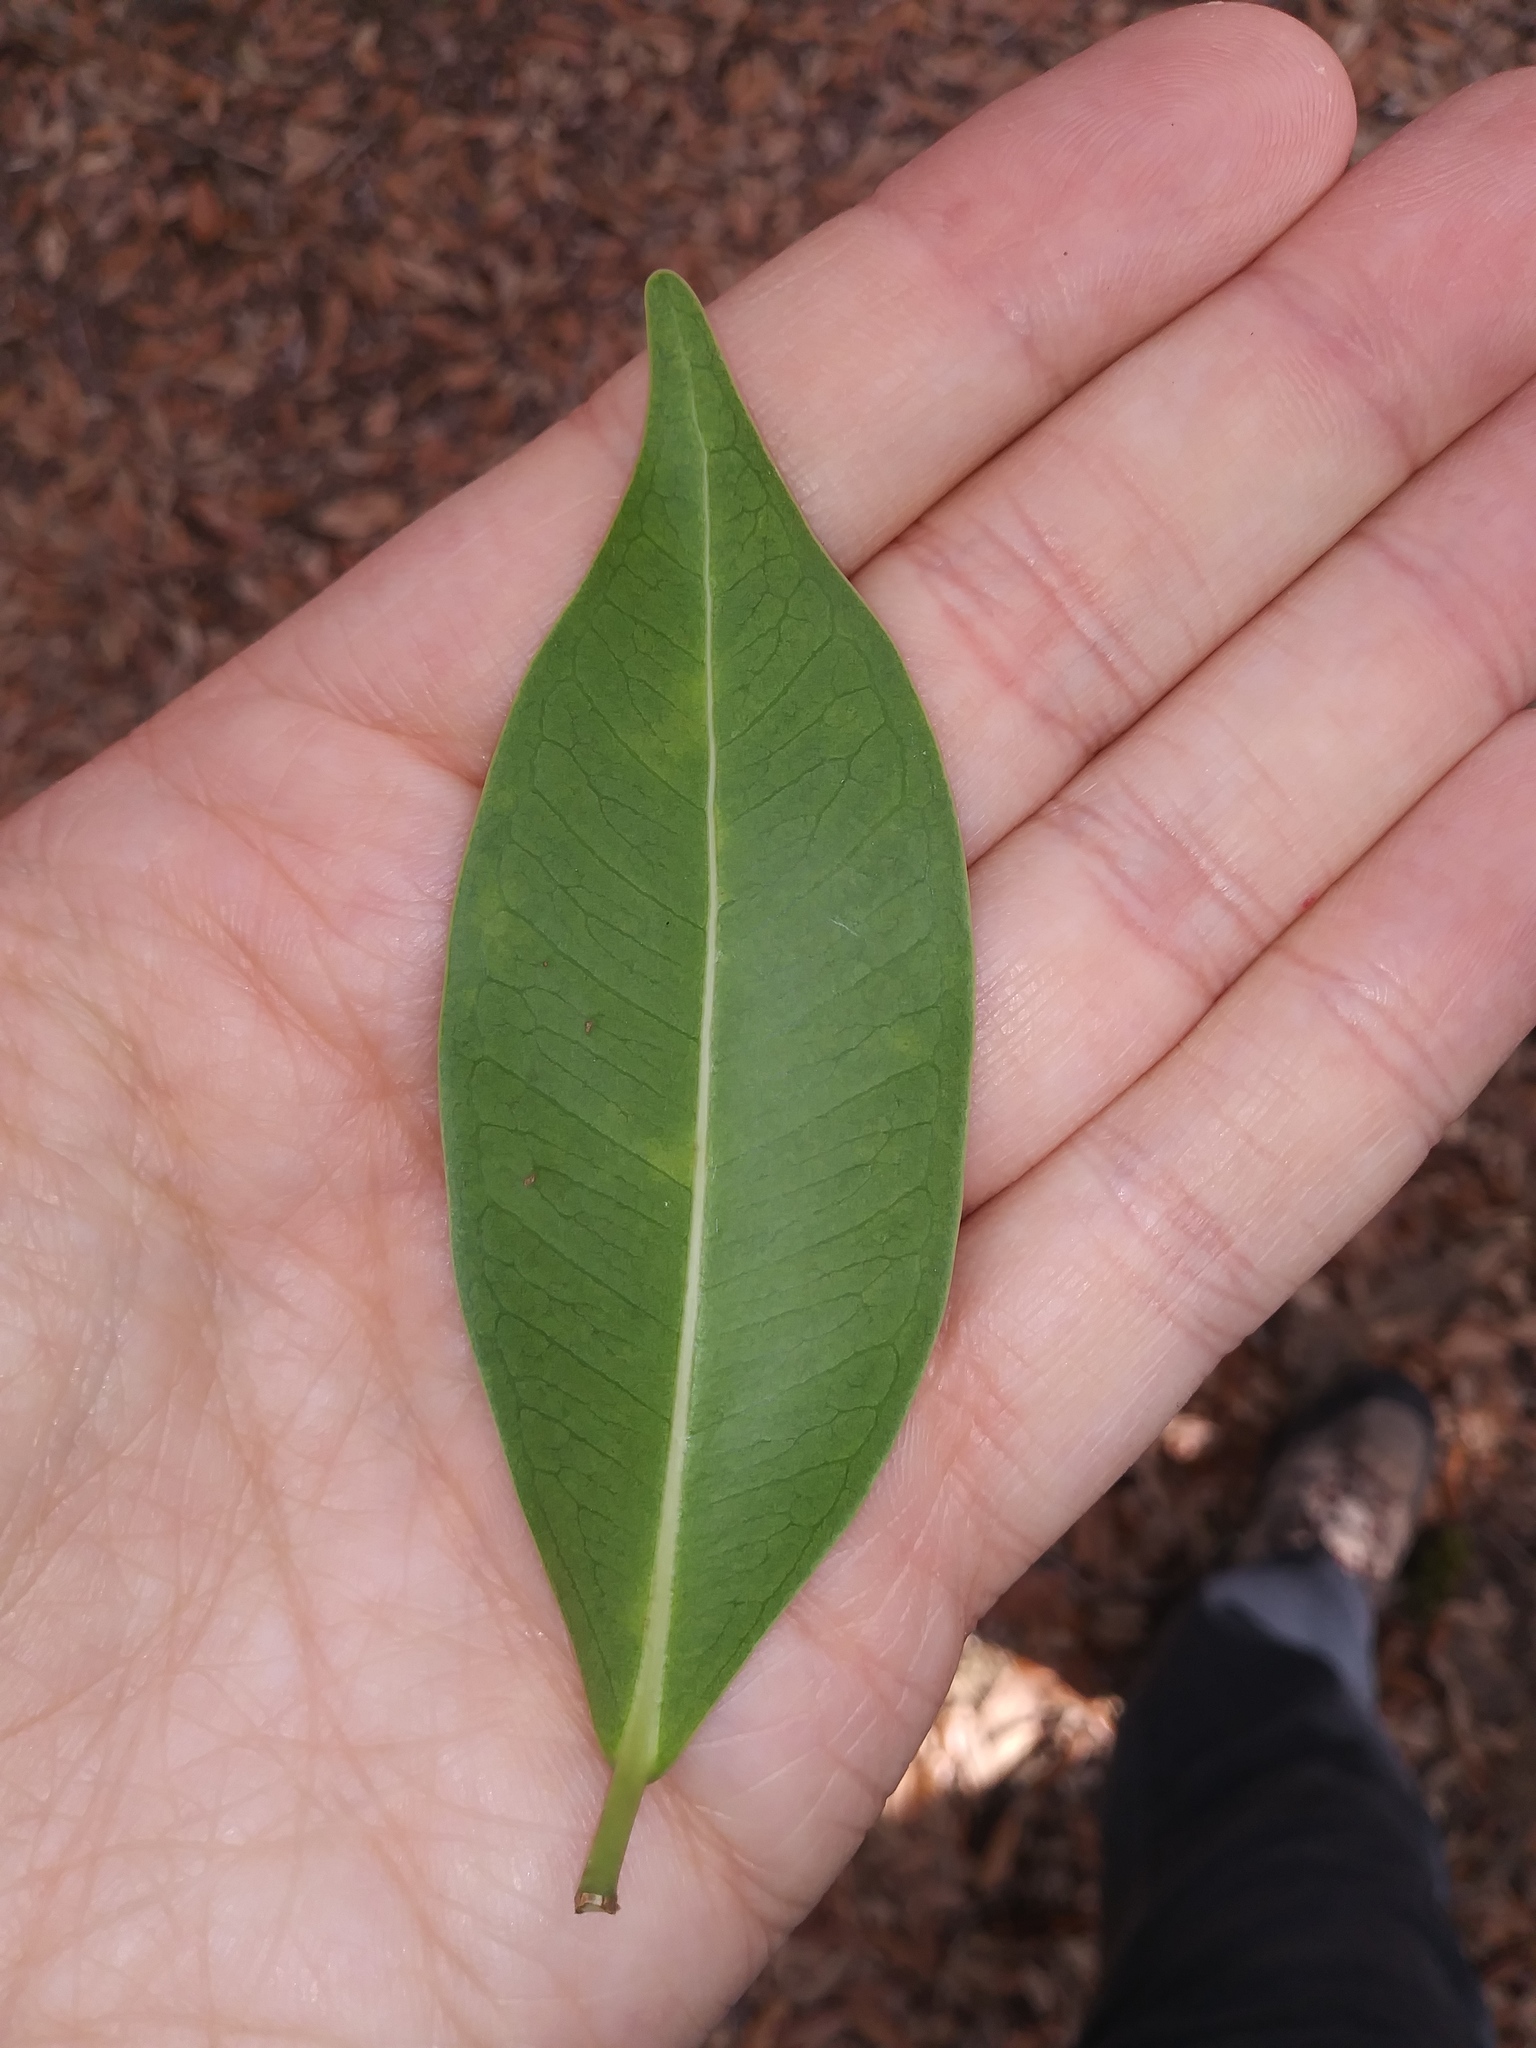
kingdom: Plantae
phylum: Tracheophyta
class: Magnoliopsida
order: Rosales
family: Moraceae
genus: Ficus
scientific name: Ficus microcarpa
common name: Chinese banyan
